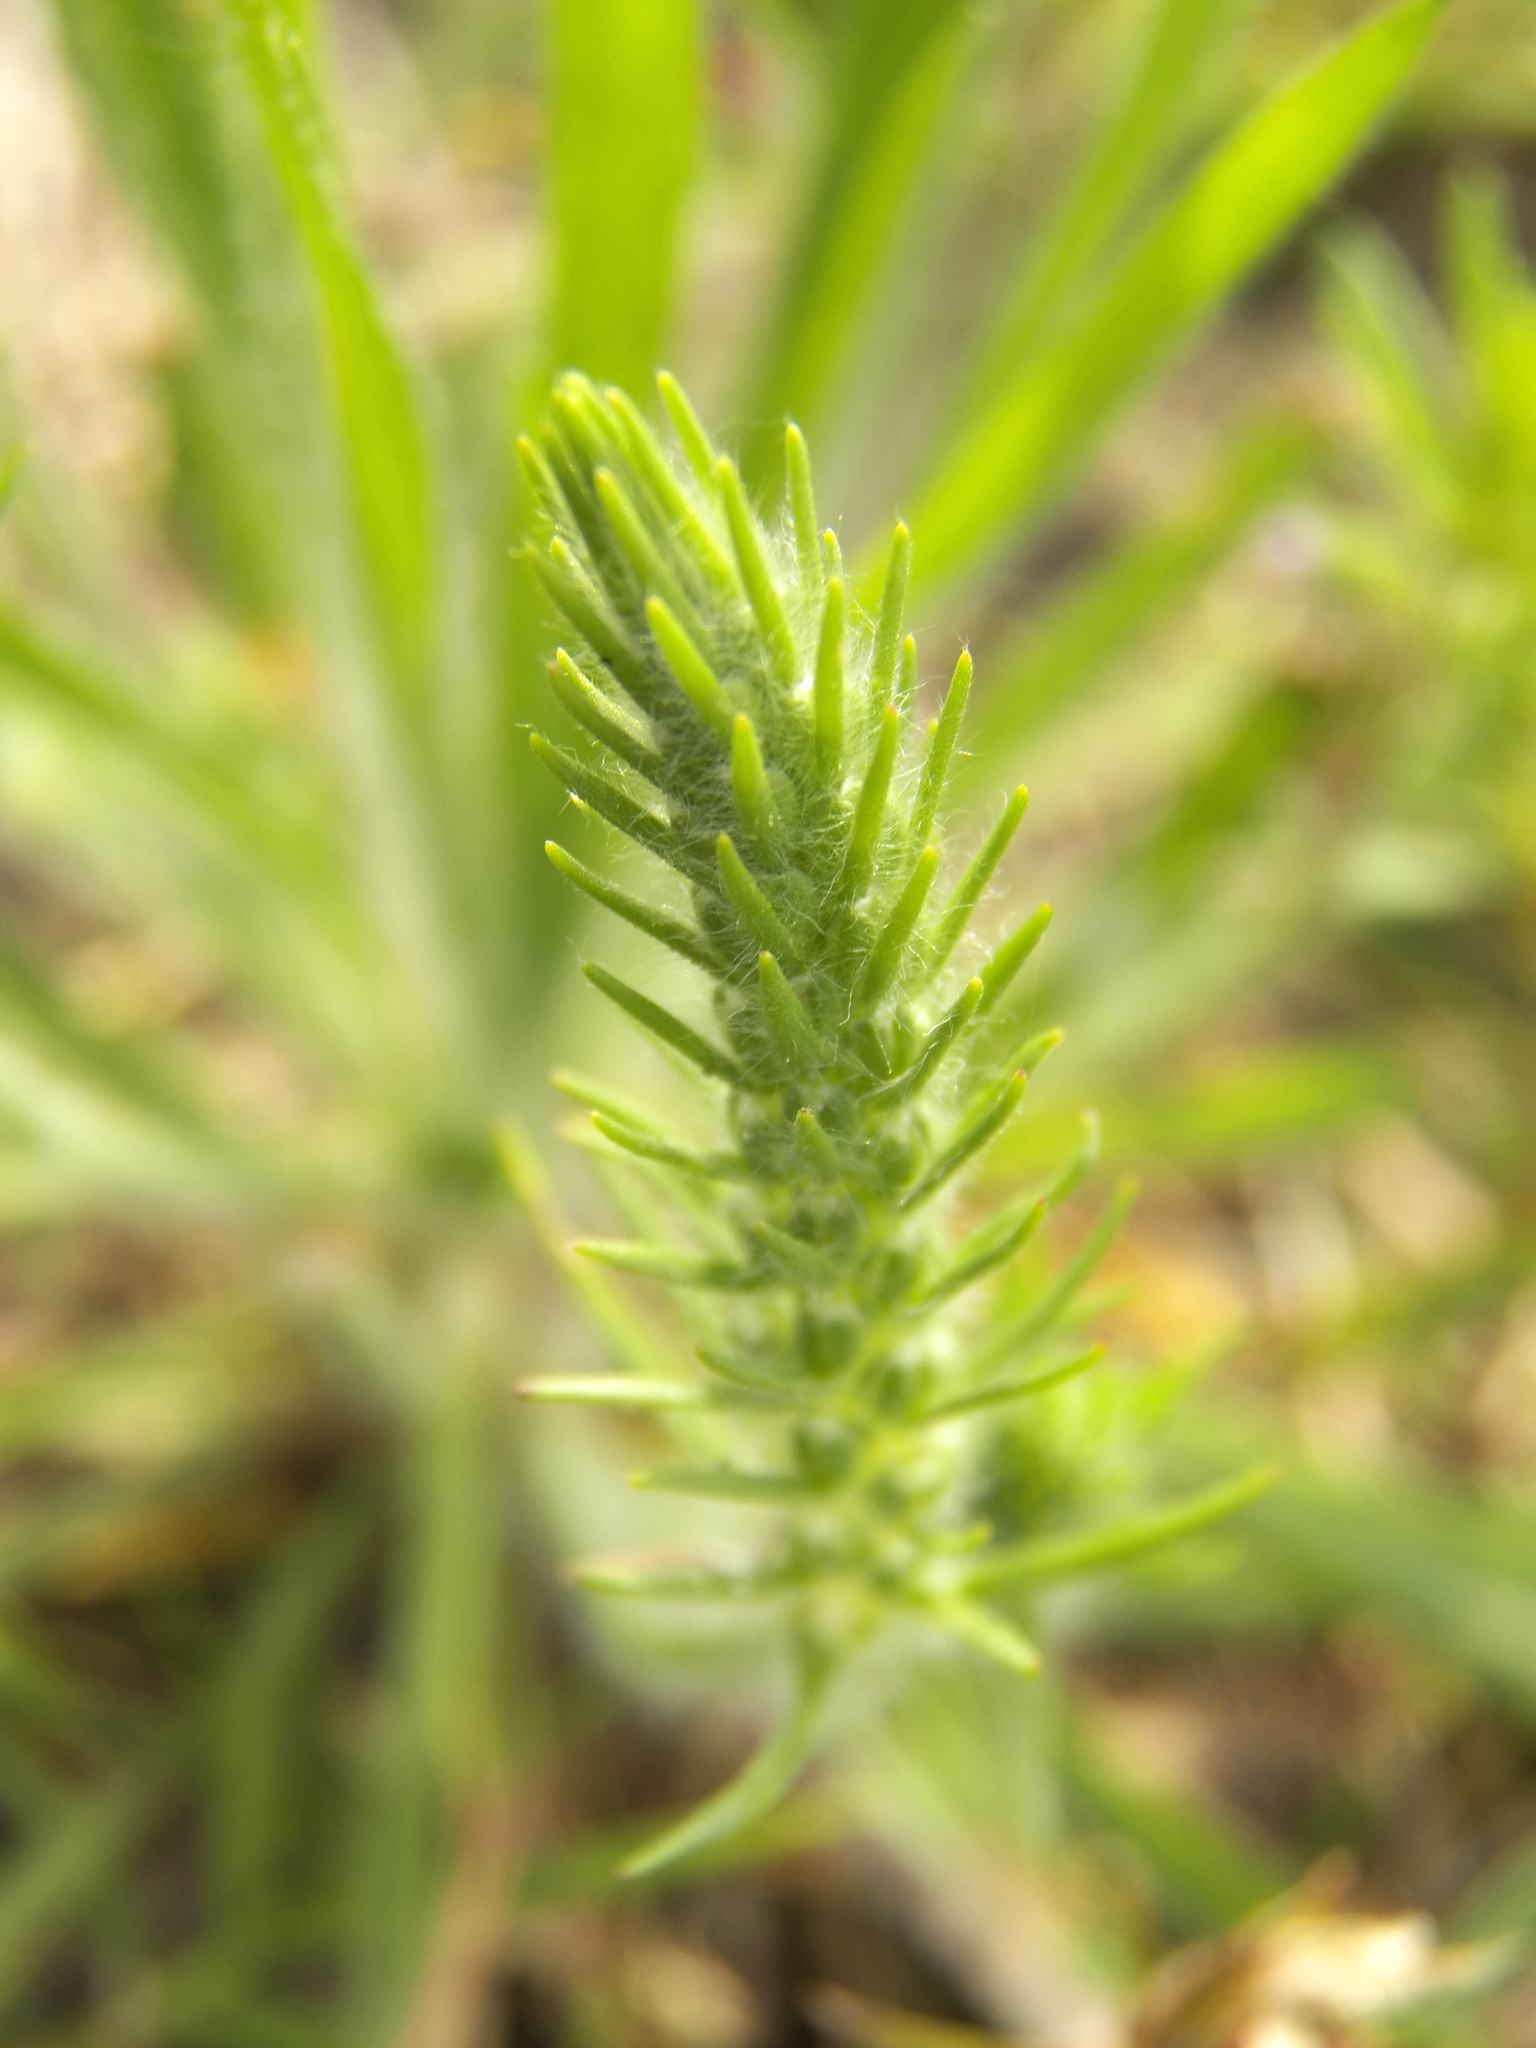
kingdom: Plantae
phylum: Tracheophyta
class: Magnoliopsida
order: Lamiales
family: Plantaginaceae
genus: Plantago
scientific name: Plantago aristata
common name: Bracted plantain
